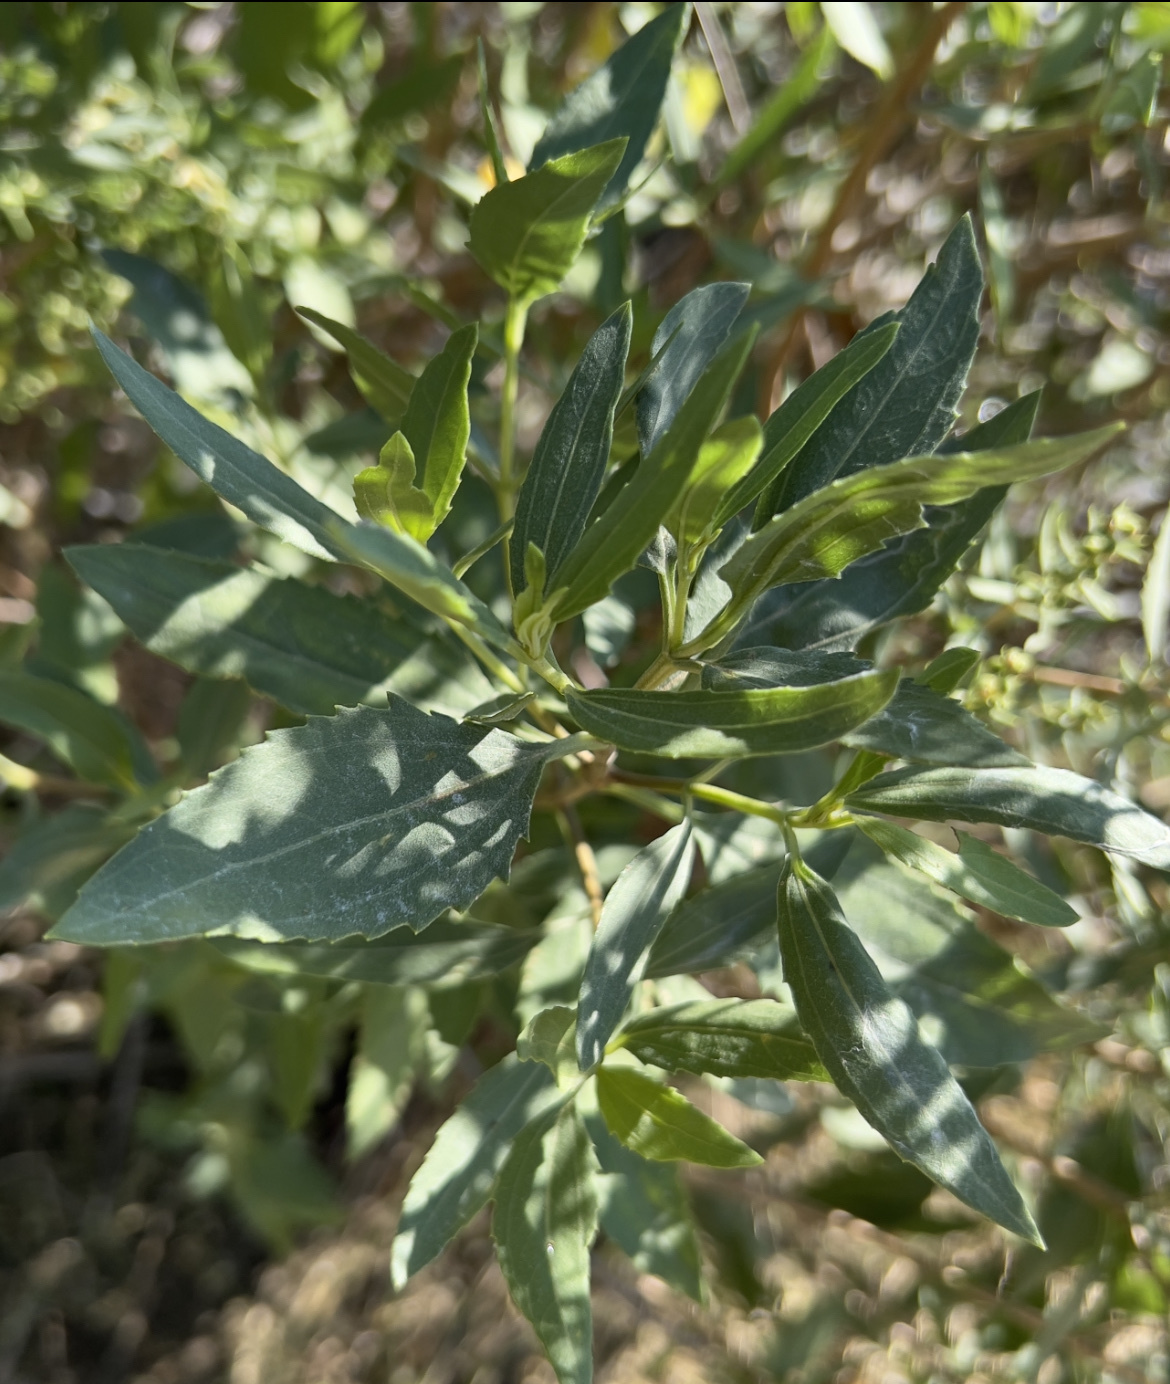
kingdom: Plantae
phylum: Tracheophyta
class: Magnoliopsida
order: Asterales
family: Asteraceae
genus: Iva
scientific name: Iva frutescens
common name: Big-leaved marsh-elder
